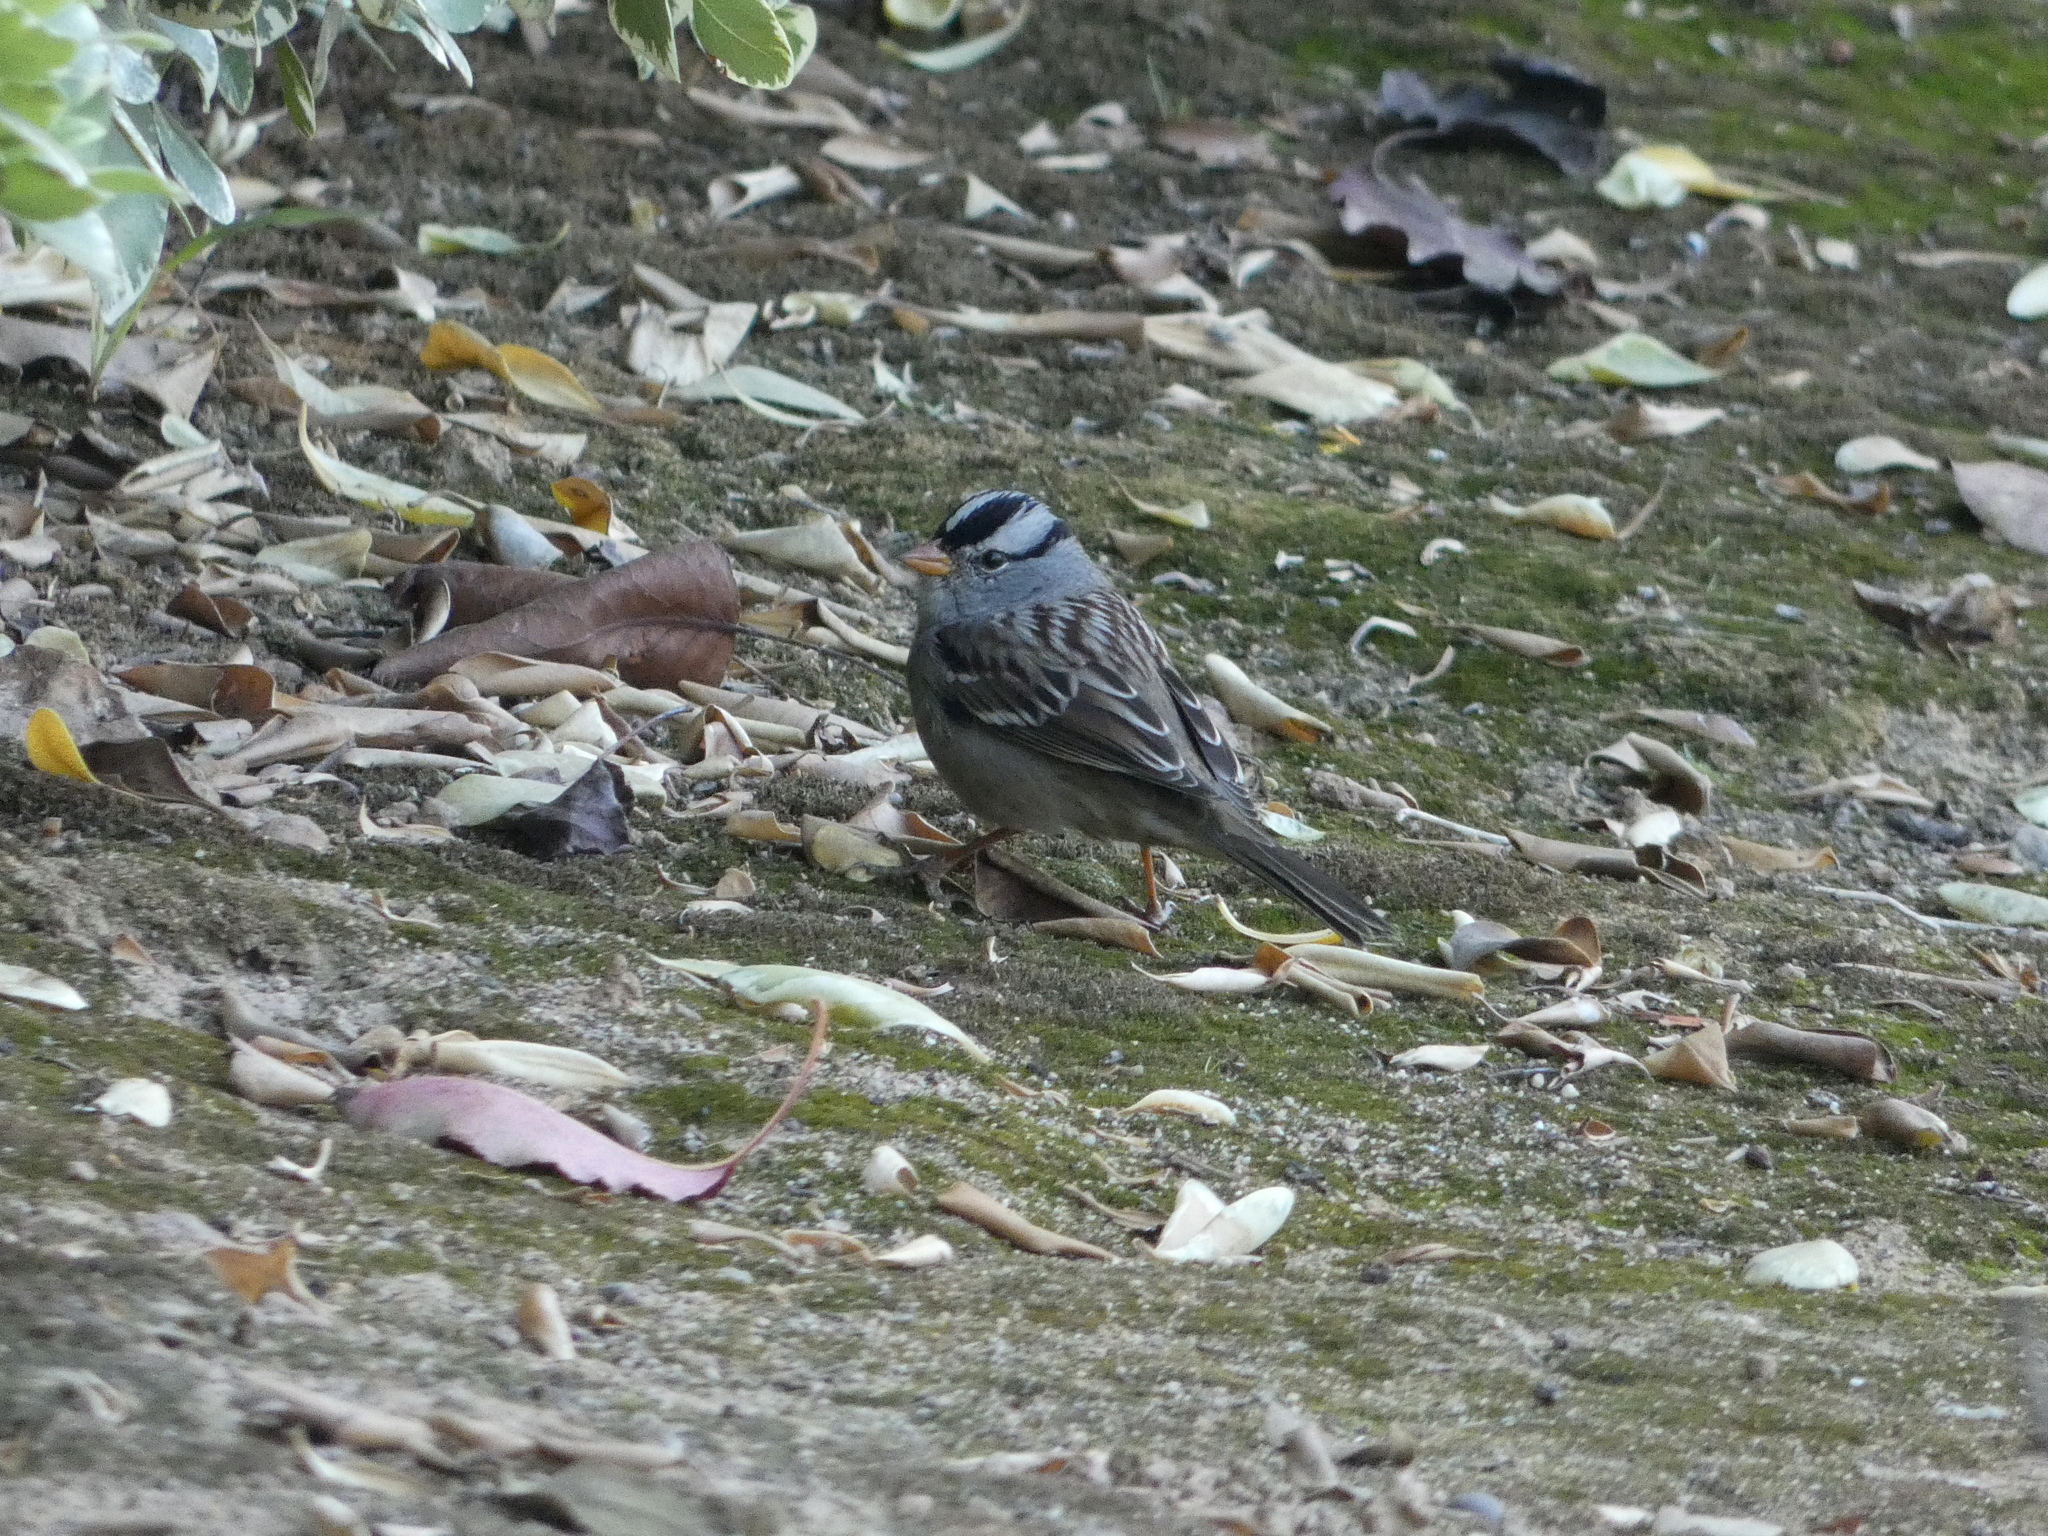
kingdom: Animalia
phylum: Chordata
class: Aves
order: Passeriformes
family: Passerellidae
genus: Zonotrichia
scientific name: Zonotrichia leucophrys
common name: White-crowned sparrow
